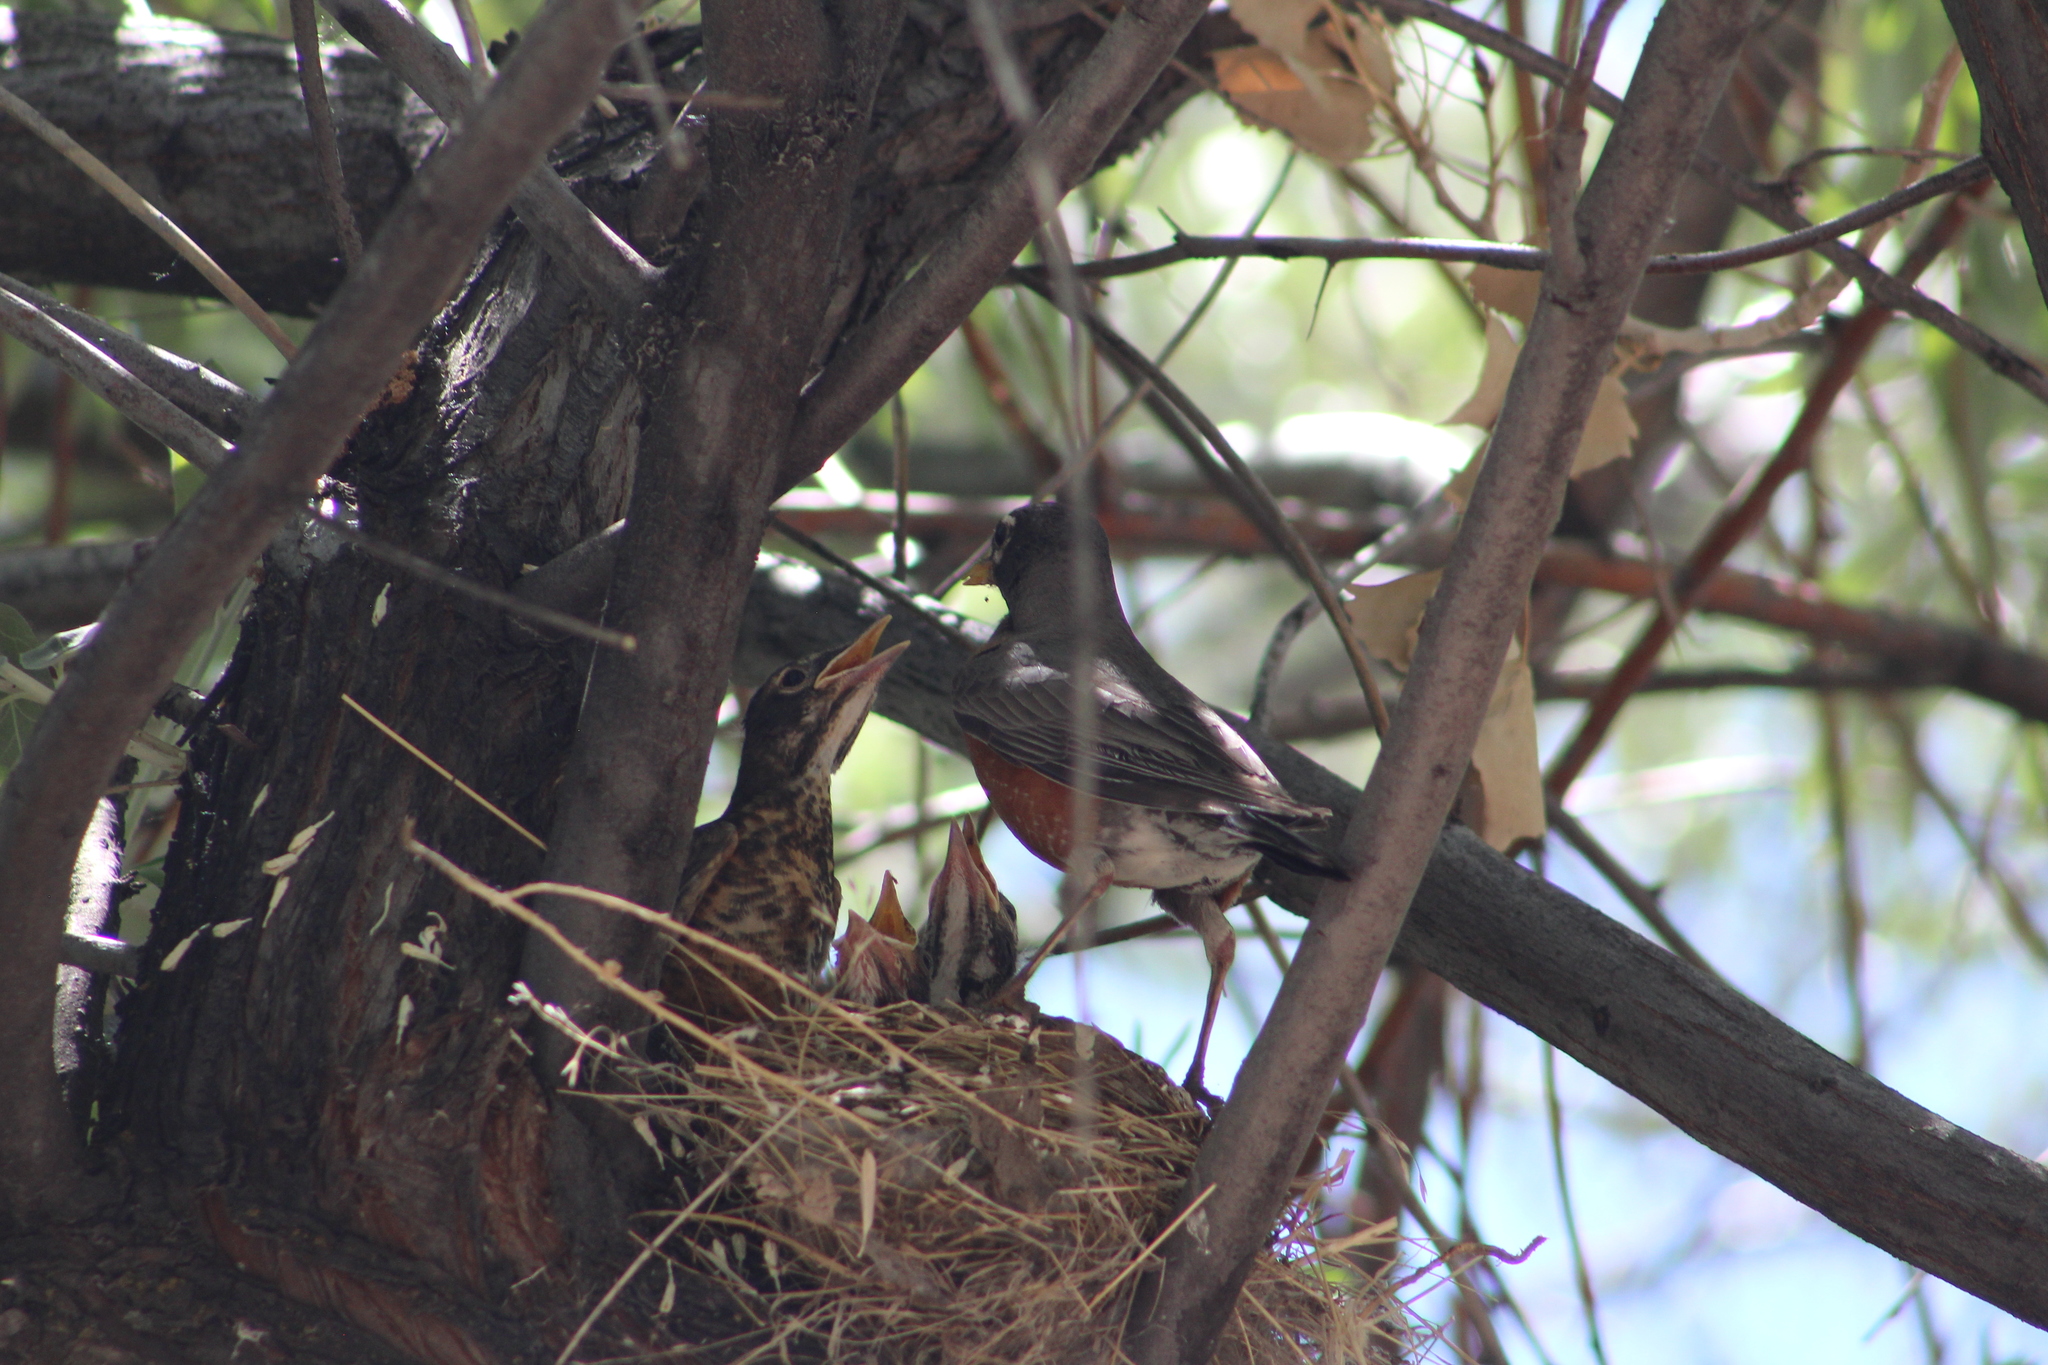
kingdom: Animalia
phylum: Chordata
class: Aves
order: Passeriformes
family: Turdidae
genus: Turdus
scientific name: Turdus migratorius
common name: American robin
